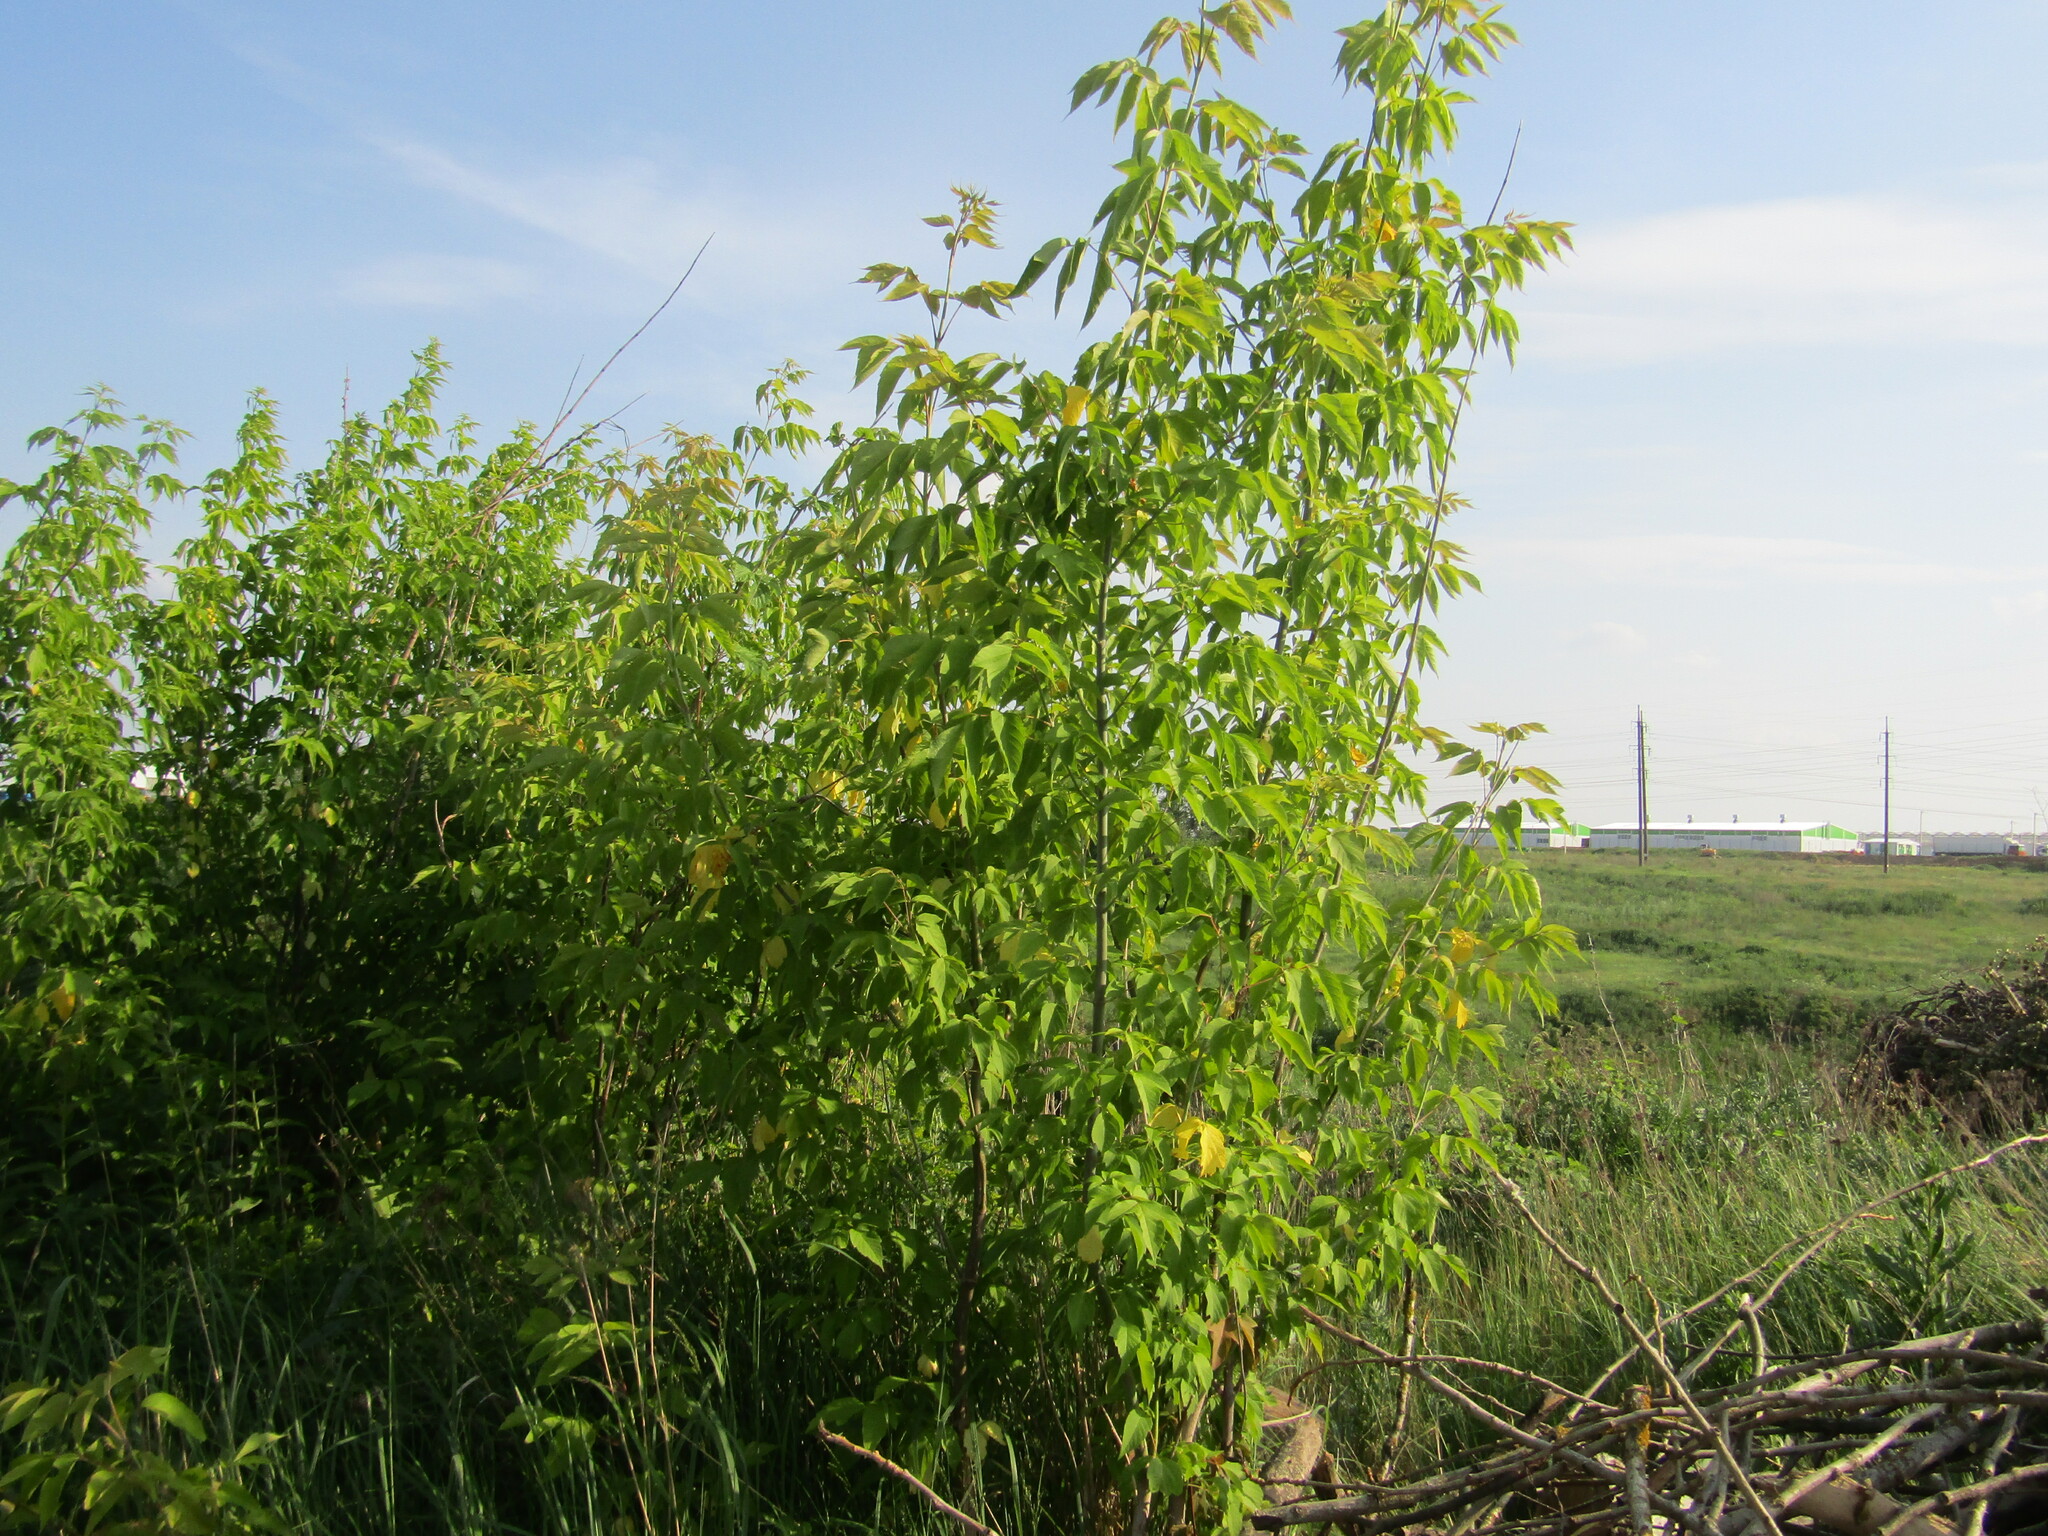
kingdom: Plantae
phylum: Tracheophyta
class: Magnoliopsida
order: Sapindales
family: Sapindaceae
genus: Acer
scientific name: Acer negundo
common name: Ashleaf maple
